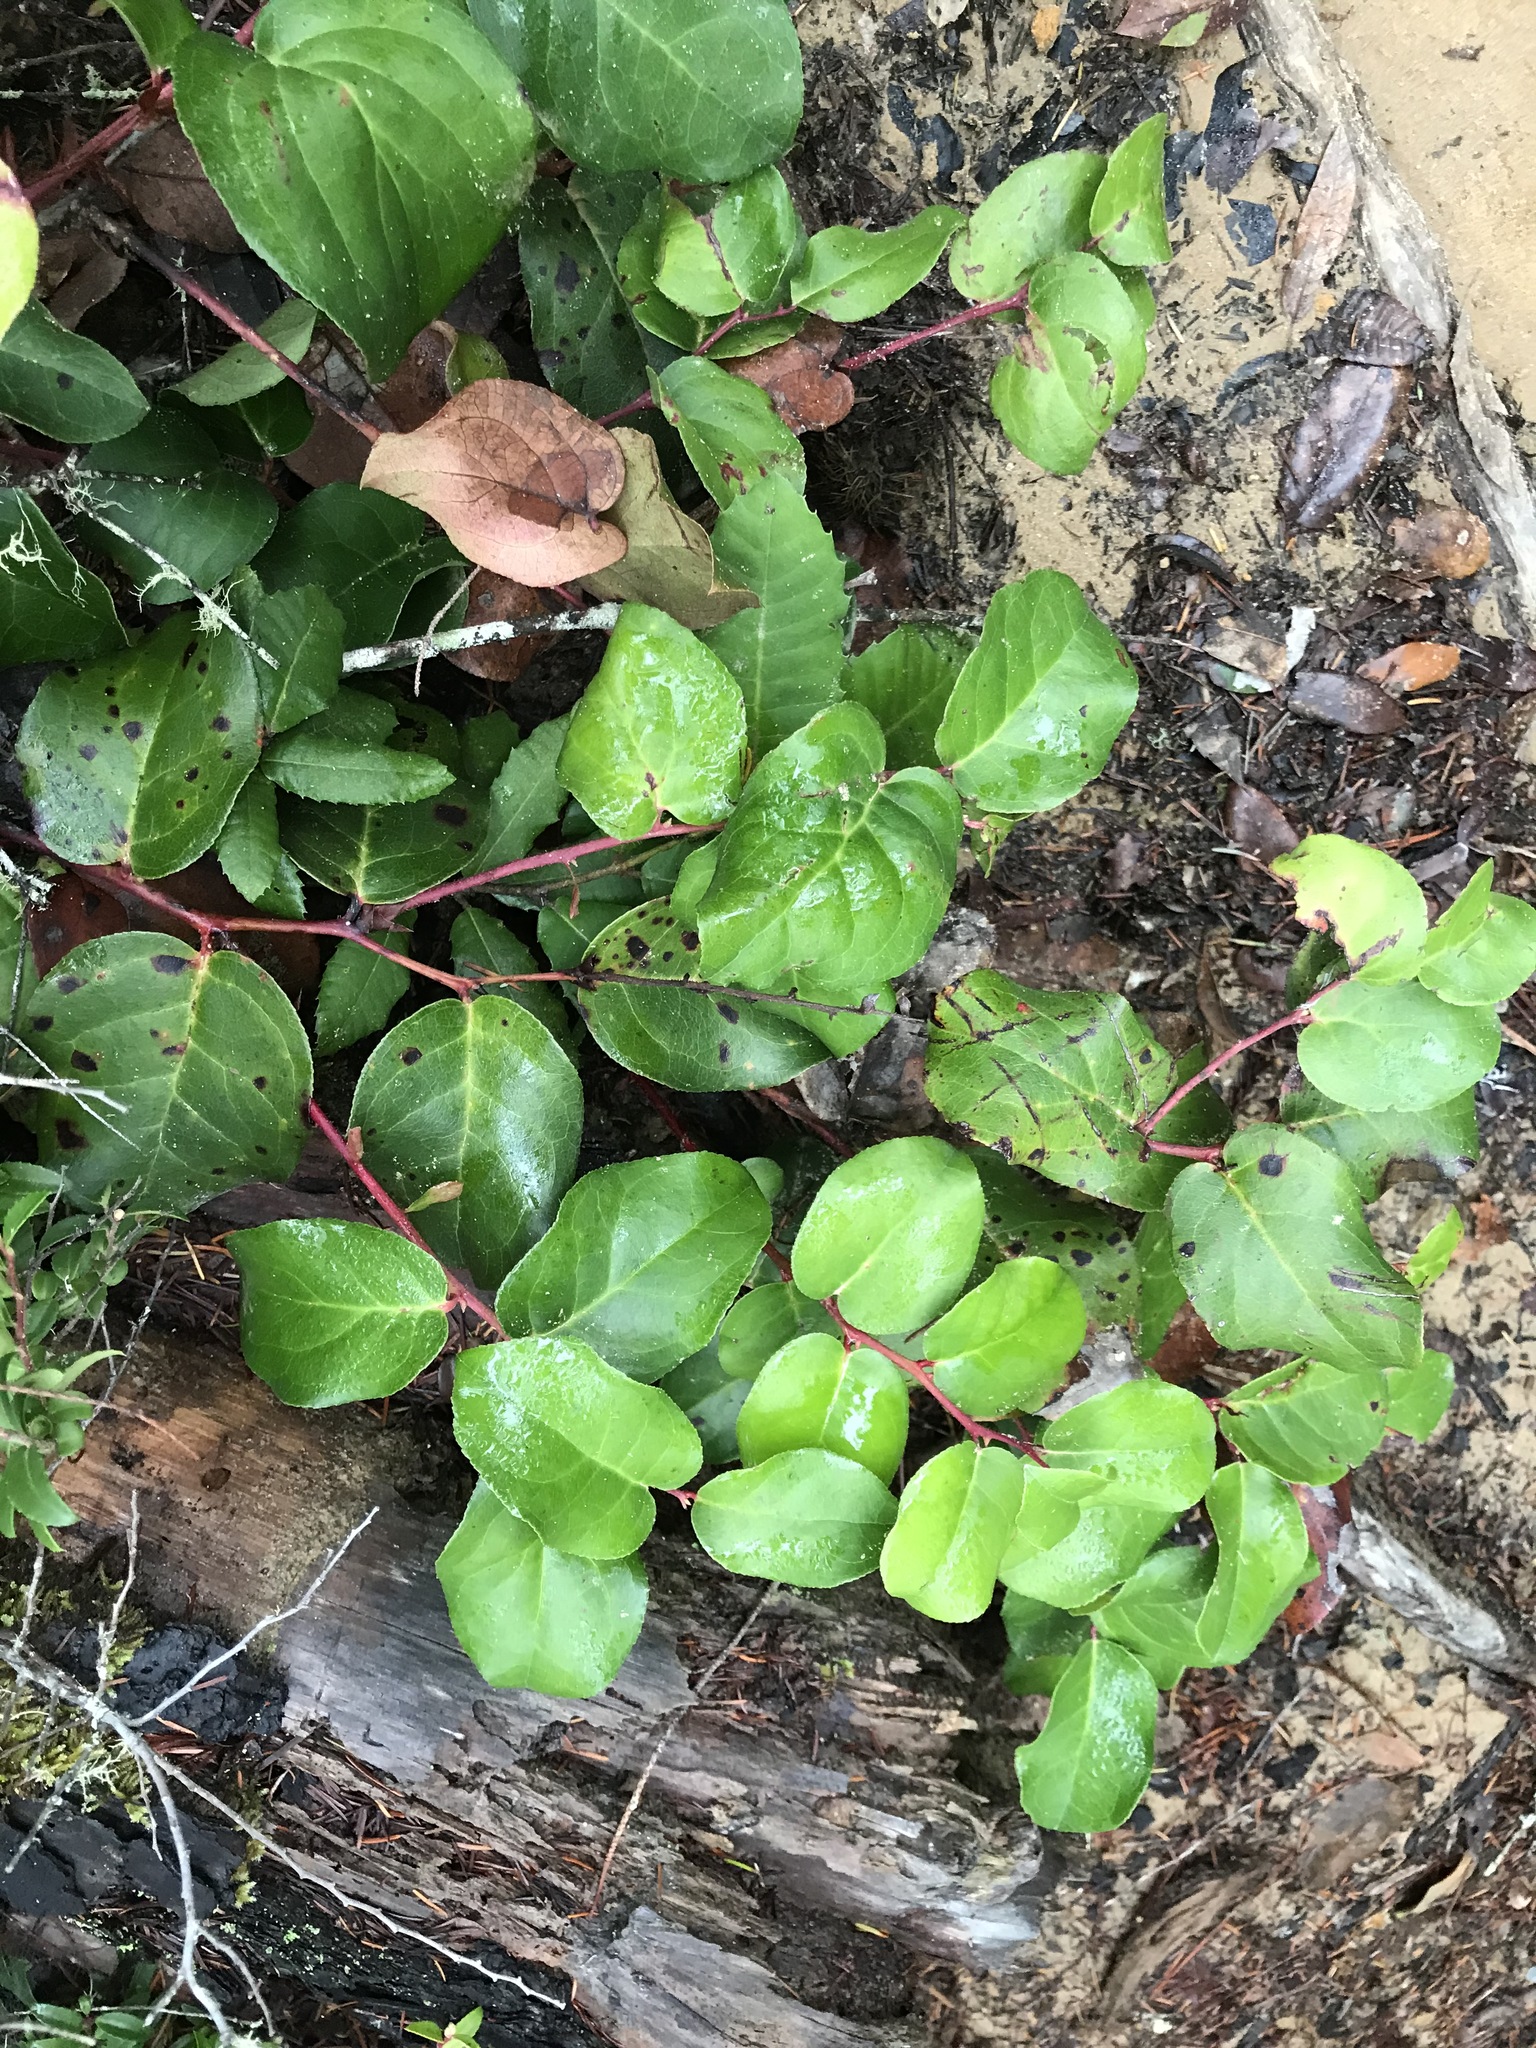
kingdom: Plantae
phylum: Tracheophyta
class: Magnoliopsida
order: Ericales
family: Ericaceae
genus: Gaultheria
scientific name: Gaultheria shallon
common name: Shallon
